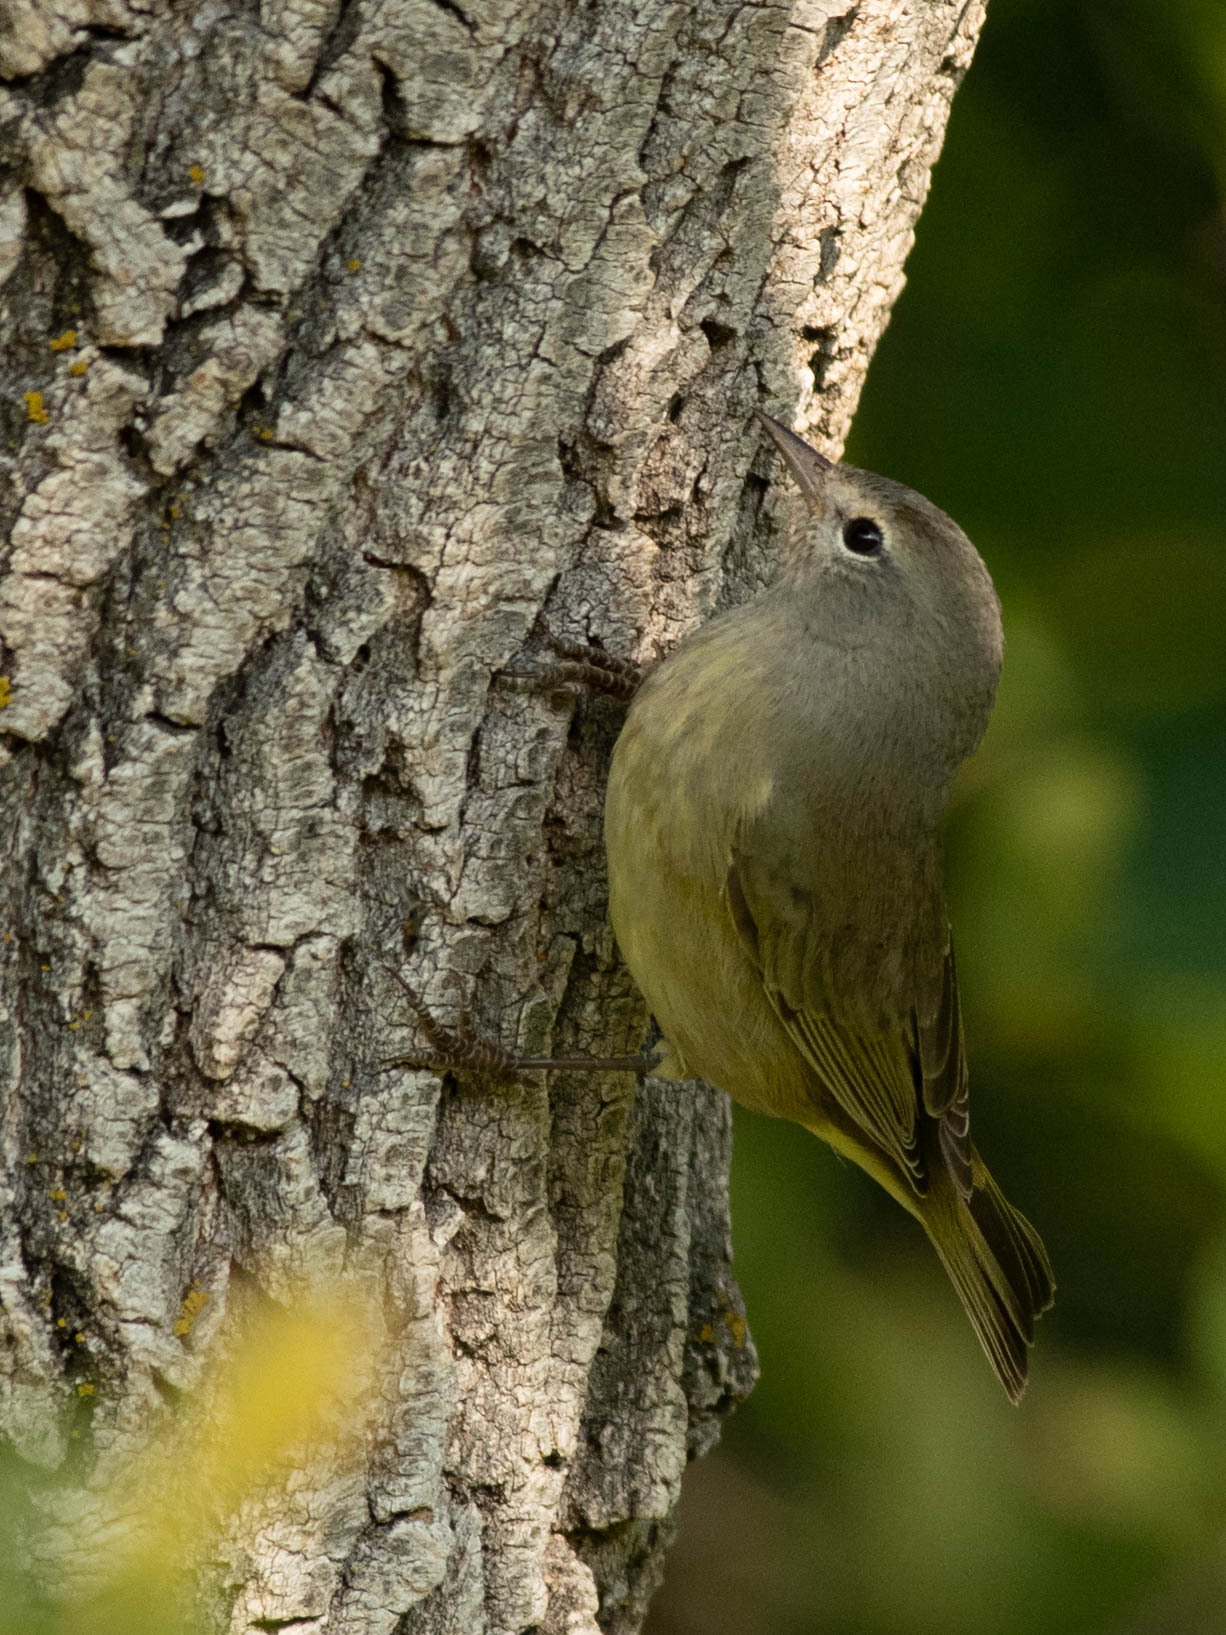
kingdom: Animalia
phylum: Chordata
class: Aves
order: Passeriformes
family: Parulidae
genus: Leiothlypis
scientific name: Leiothlypis celata
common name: Orange-crowned warbler
